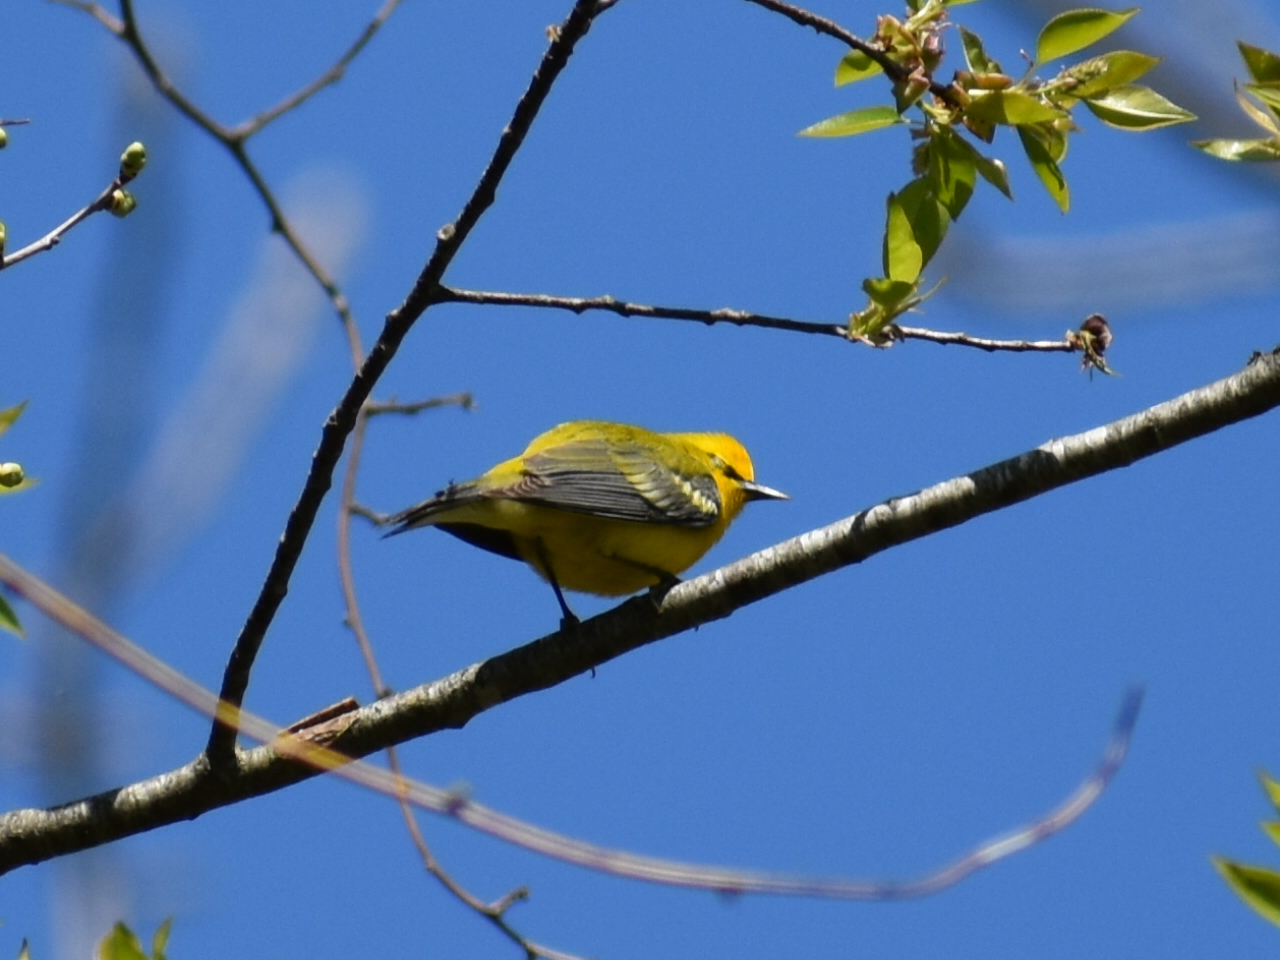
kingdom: Animalia
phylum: Chordata
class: Aves
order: Passeriformes
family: Parulidae
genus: Vermivora
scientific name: Vermivora cyanoptera
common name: Blue-winged warbler
